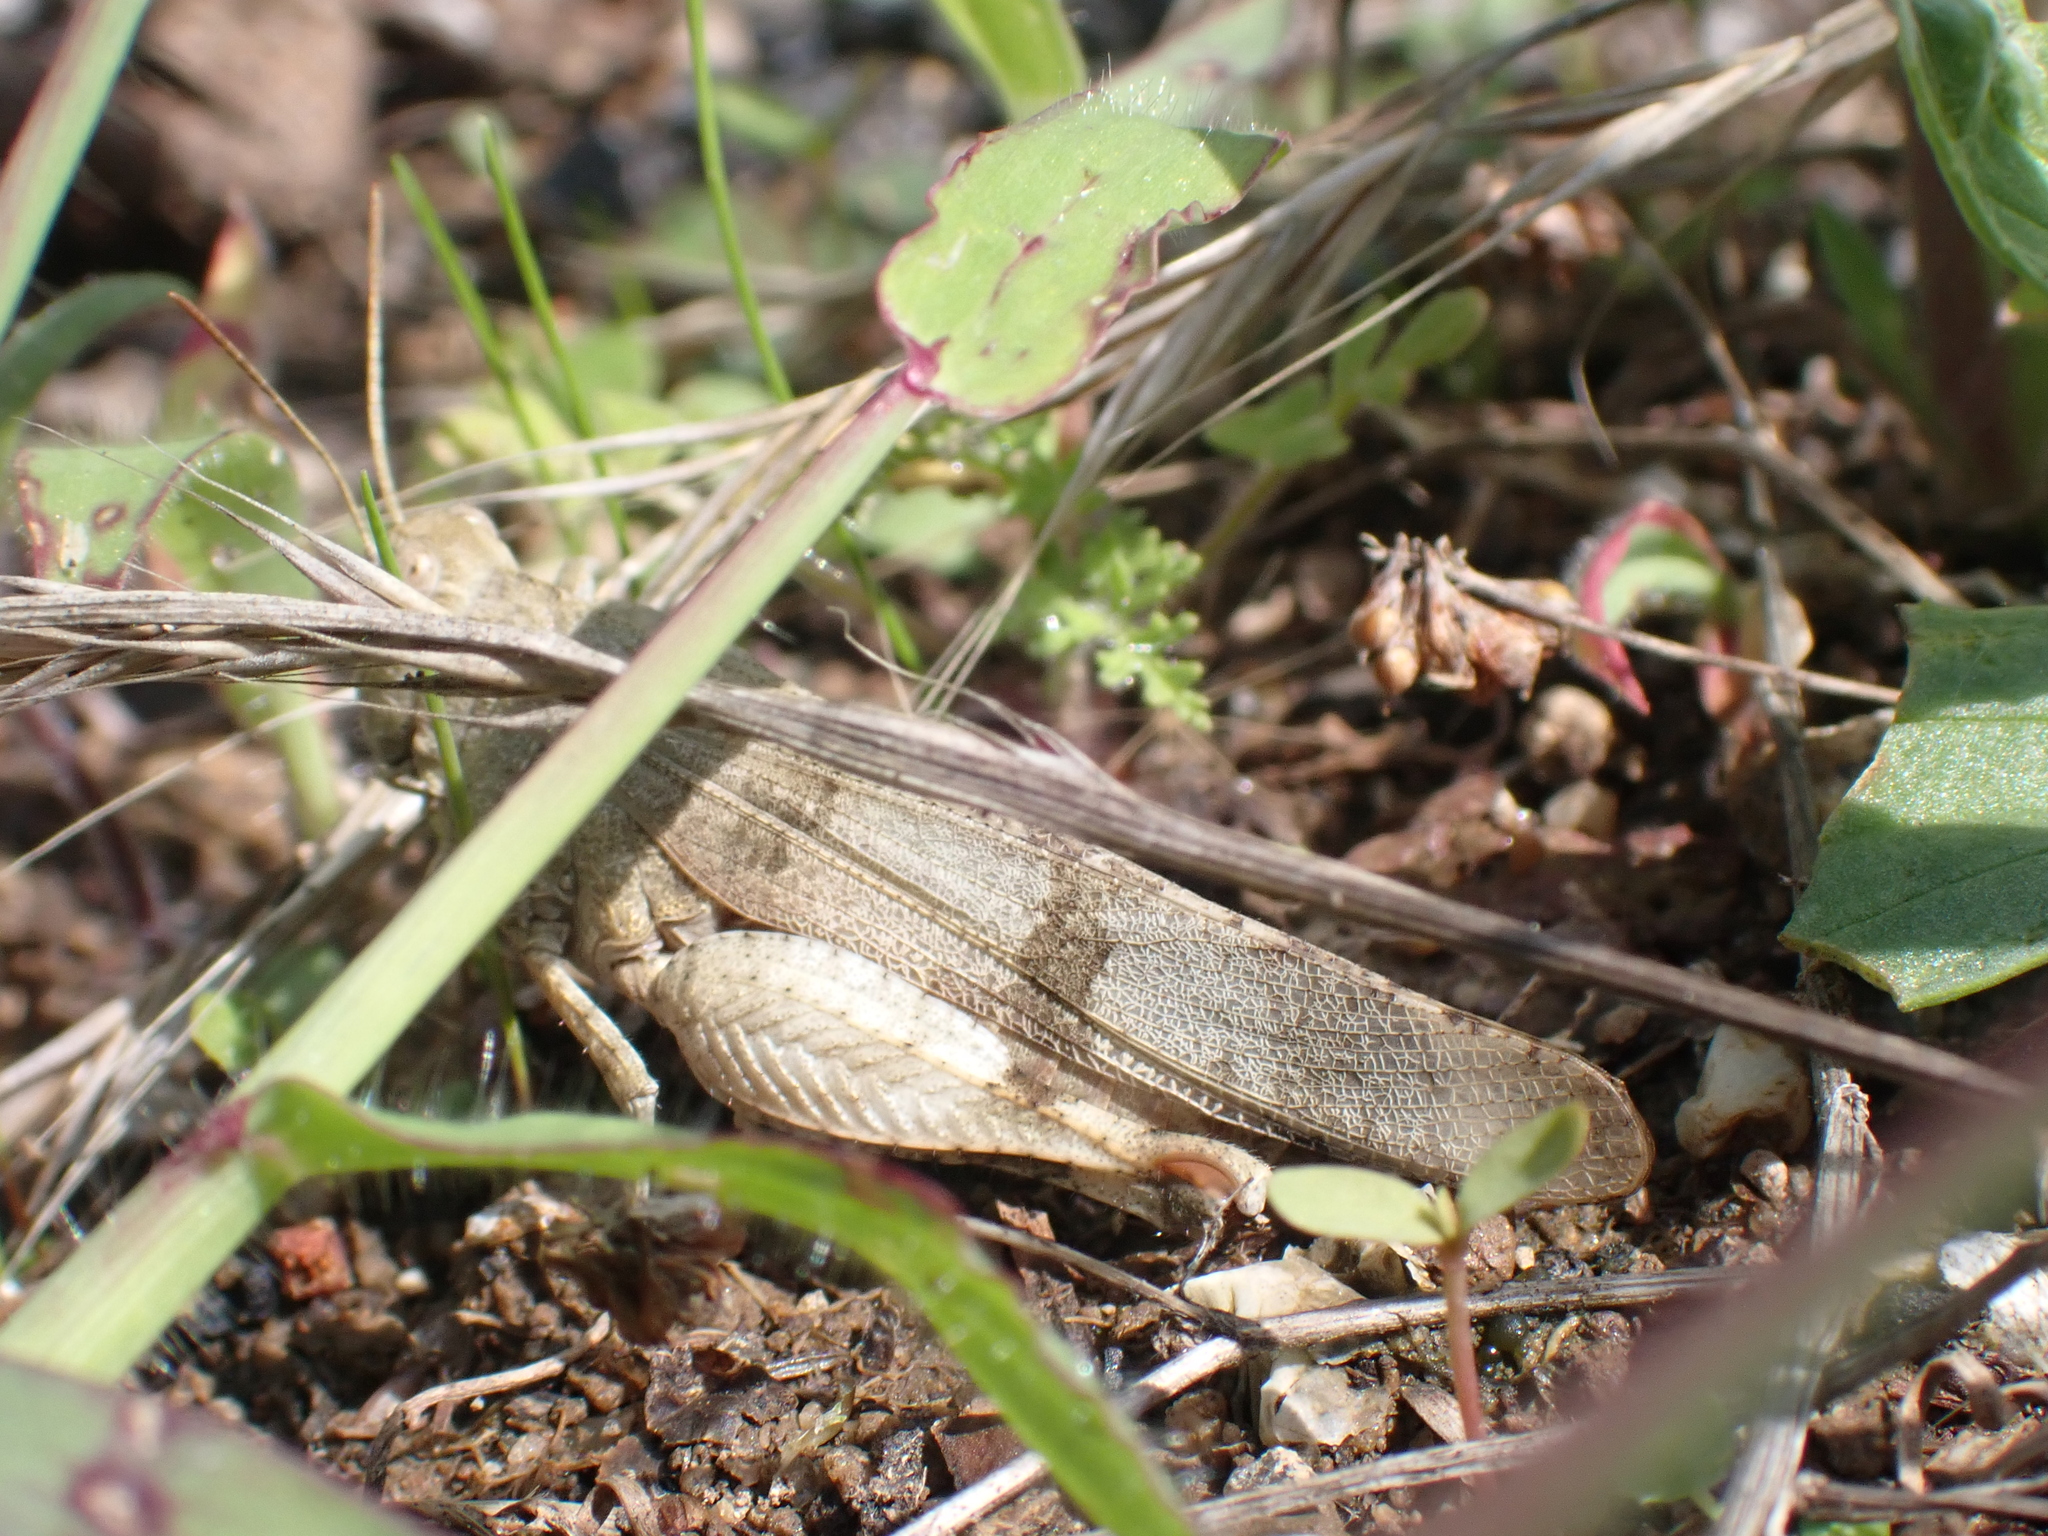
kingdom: Animalia
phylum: Arthropoda
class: Insecta
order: Orthoptera
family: Acrididae
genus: Oedipoda
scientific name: Oedipoda caerulescens
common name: Blue-winged grasshopper
